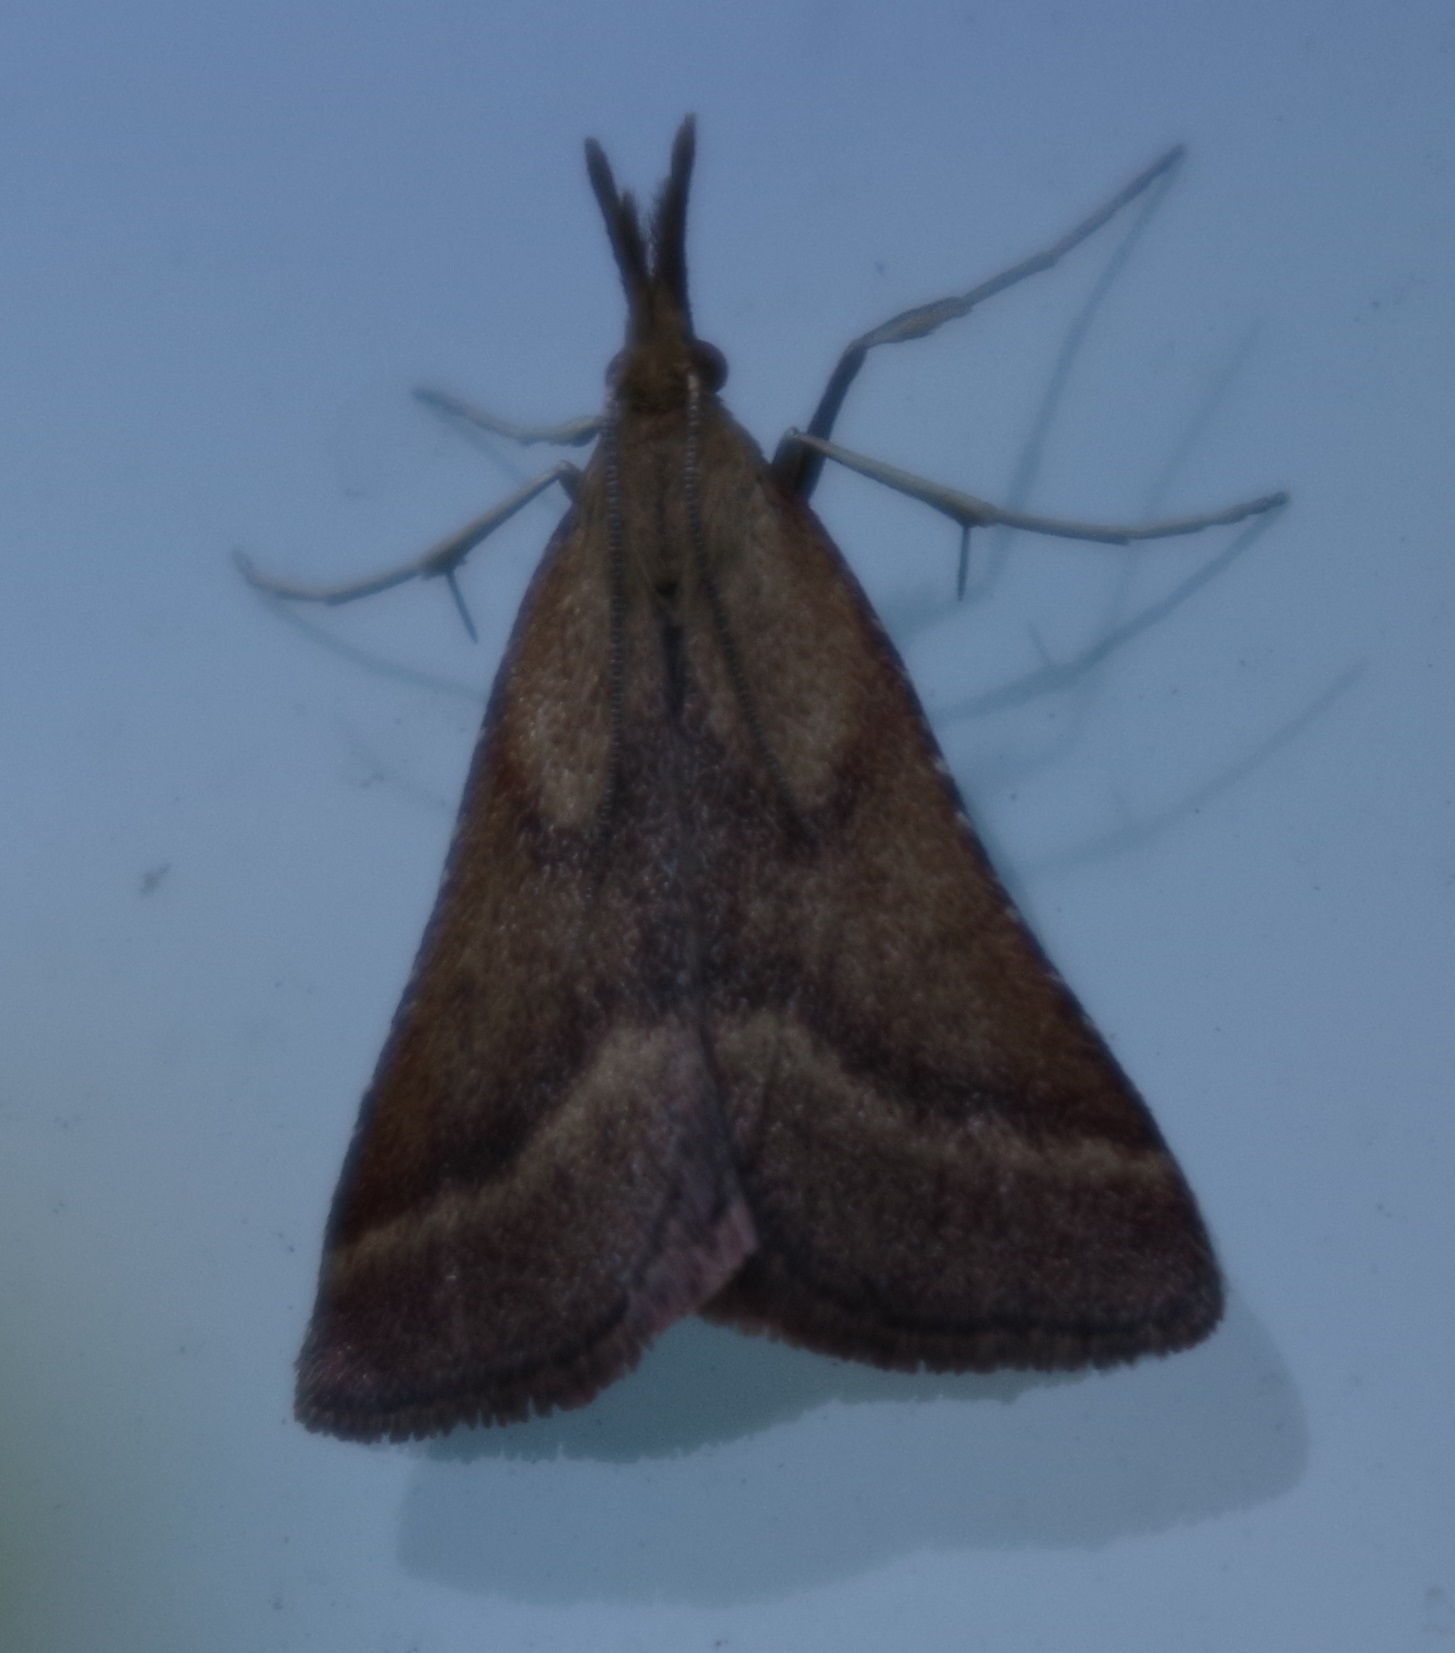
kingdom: Animalia
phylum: Arthropoda
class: Insecta
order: Lepidoptera
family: Pyralidae
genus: Synaphe
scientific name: Synaphe punctalis
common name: Long-legged tabby
